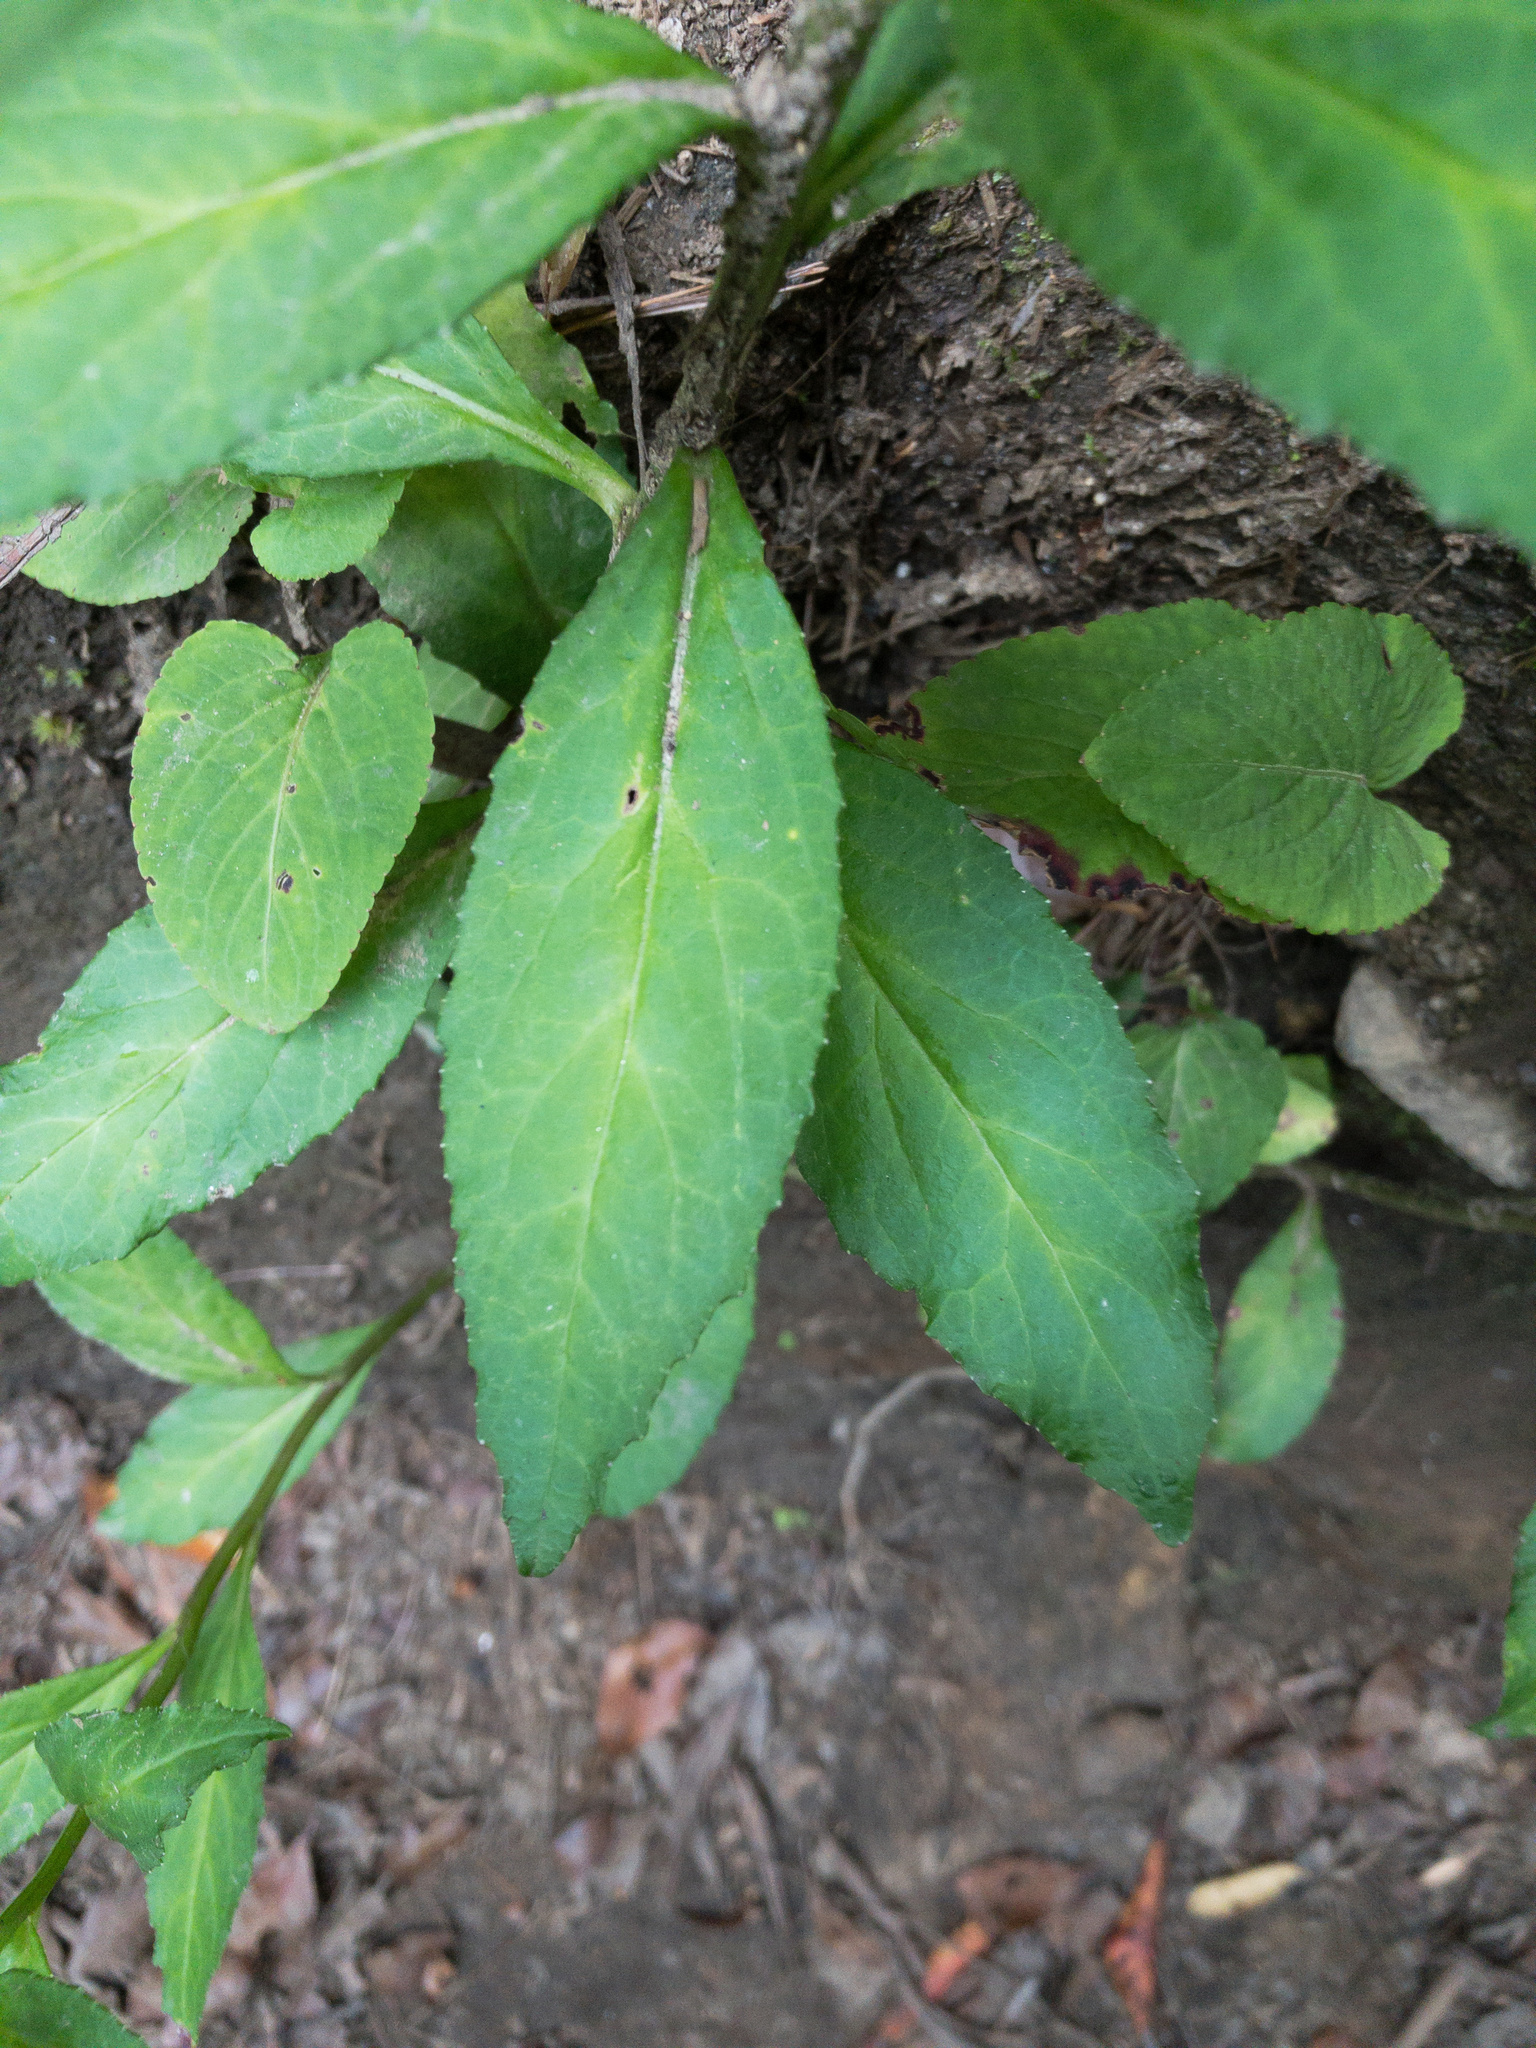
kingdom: Plantae
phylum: Tracheophyta
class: Magnoliopsida
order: Asterales
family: Campanulaceae
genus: Lobelia
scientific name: Lobelia amoena
